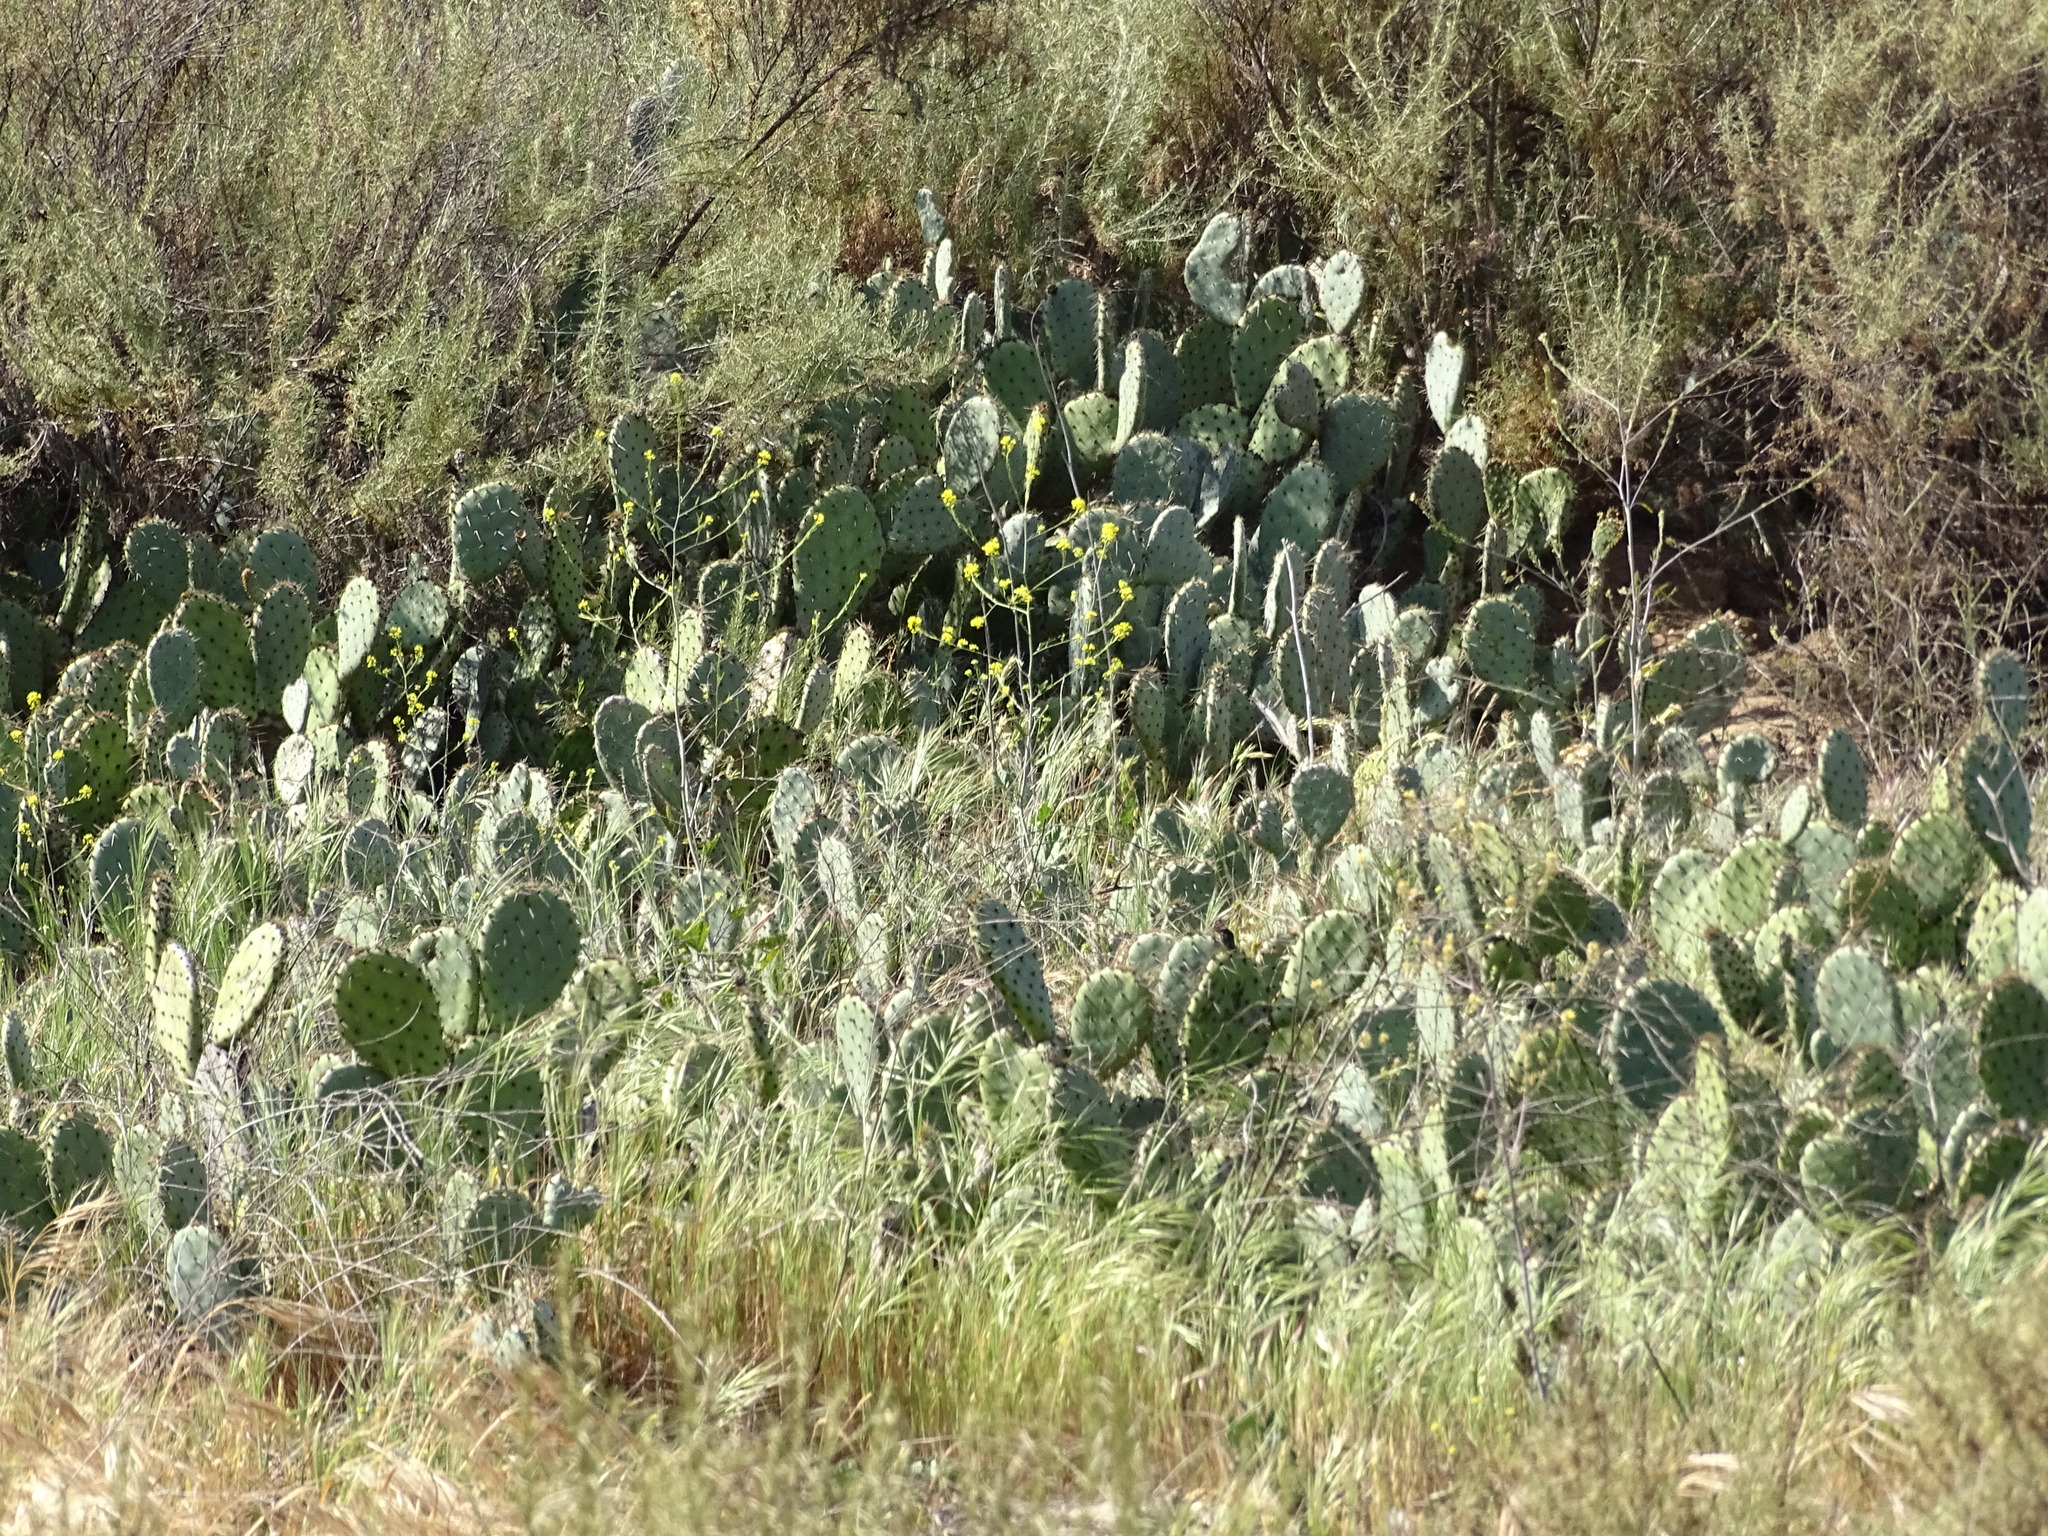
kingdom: Plantae
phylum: Tracheophyta
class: Magnoliopsida
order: Caryophyllales
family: Cactaceae
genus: Opuntia
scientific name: Opuntia littoralis
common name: Coastal prickly-pear
